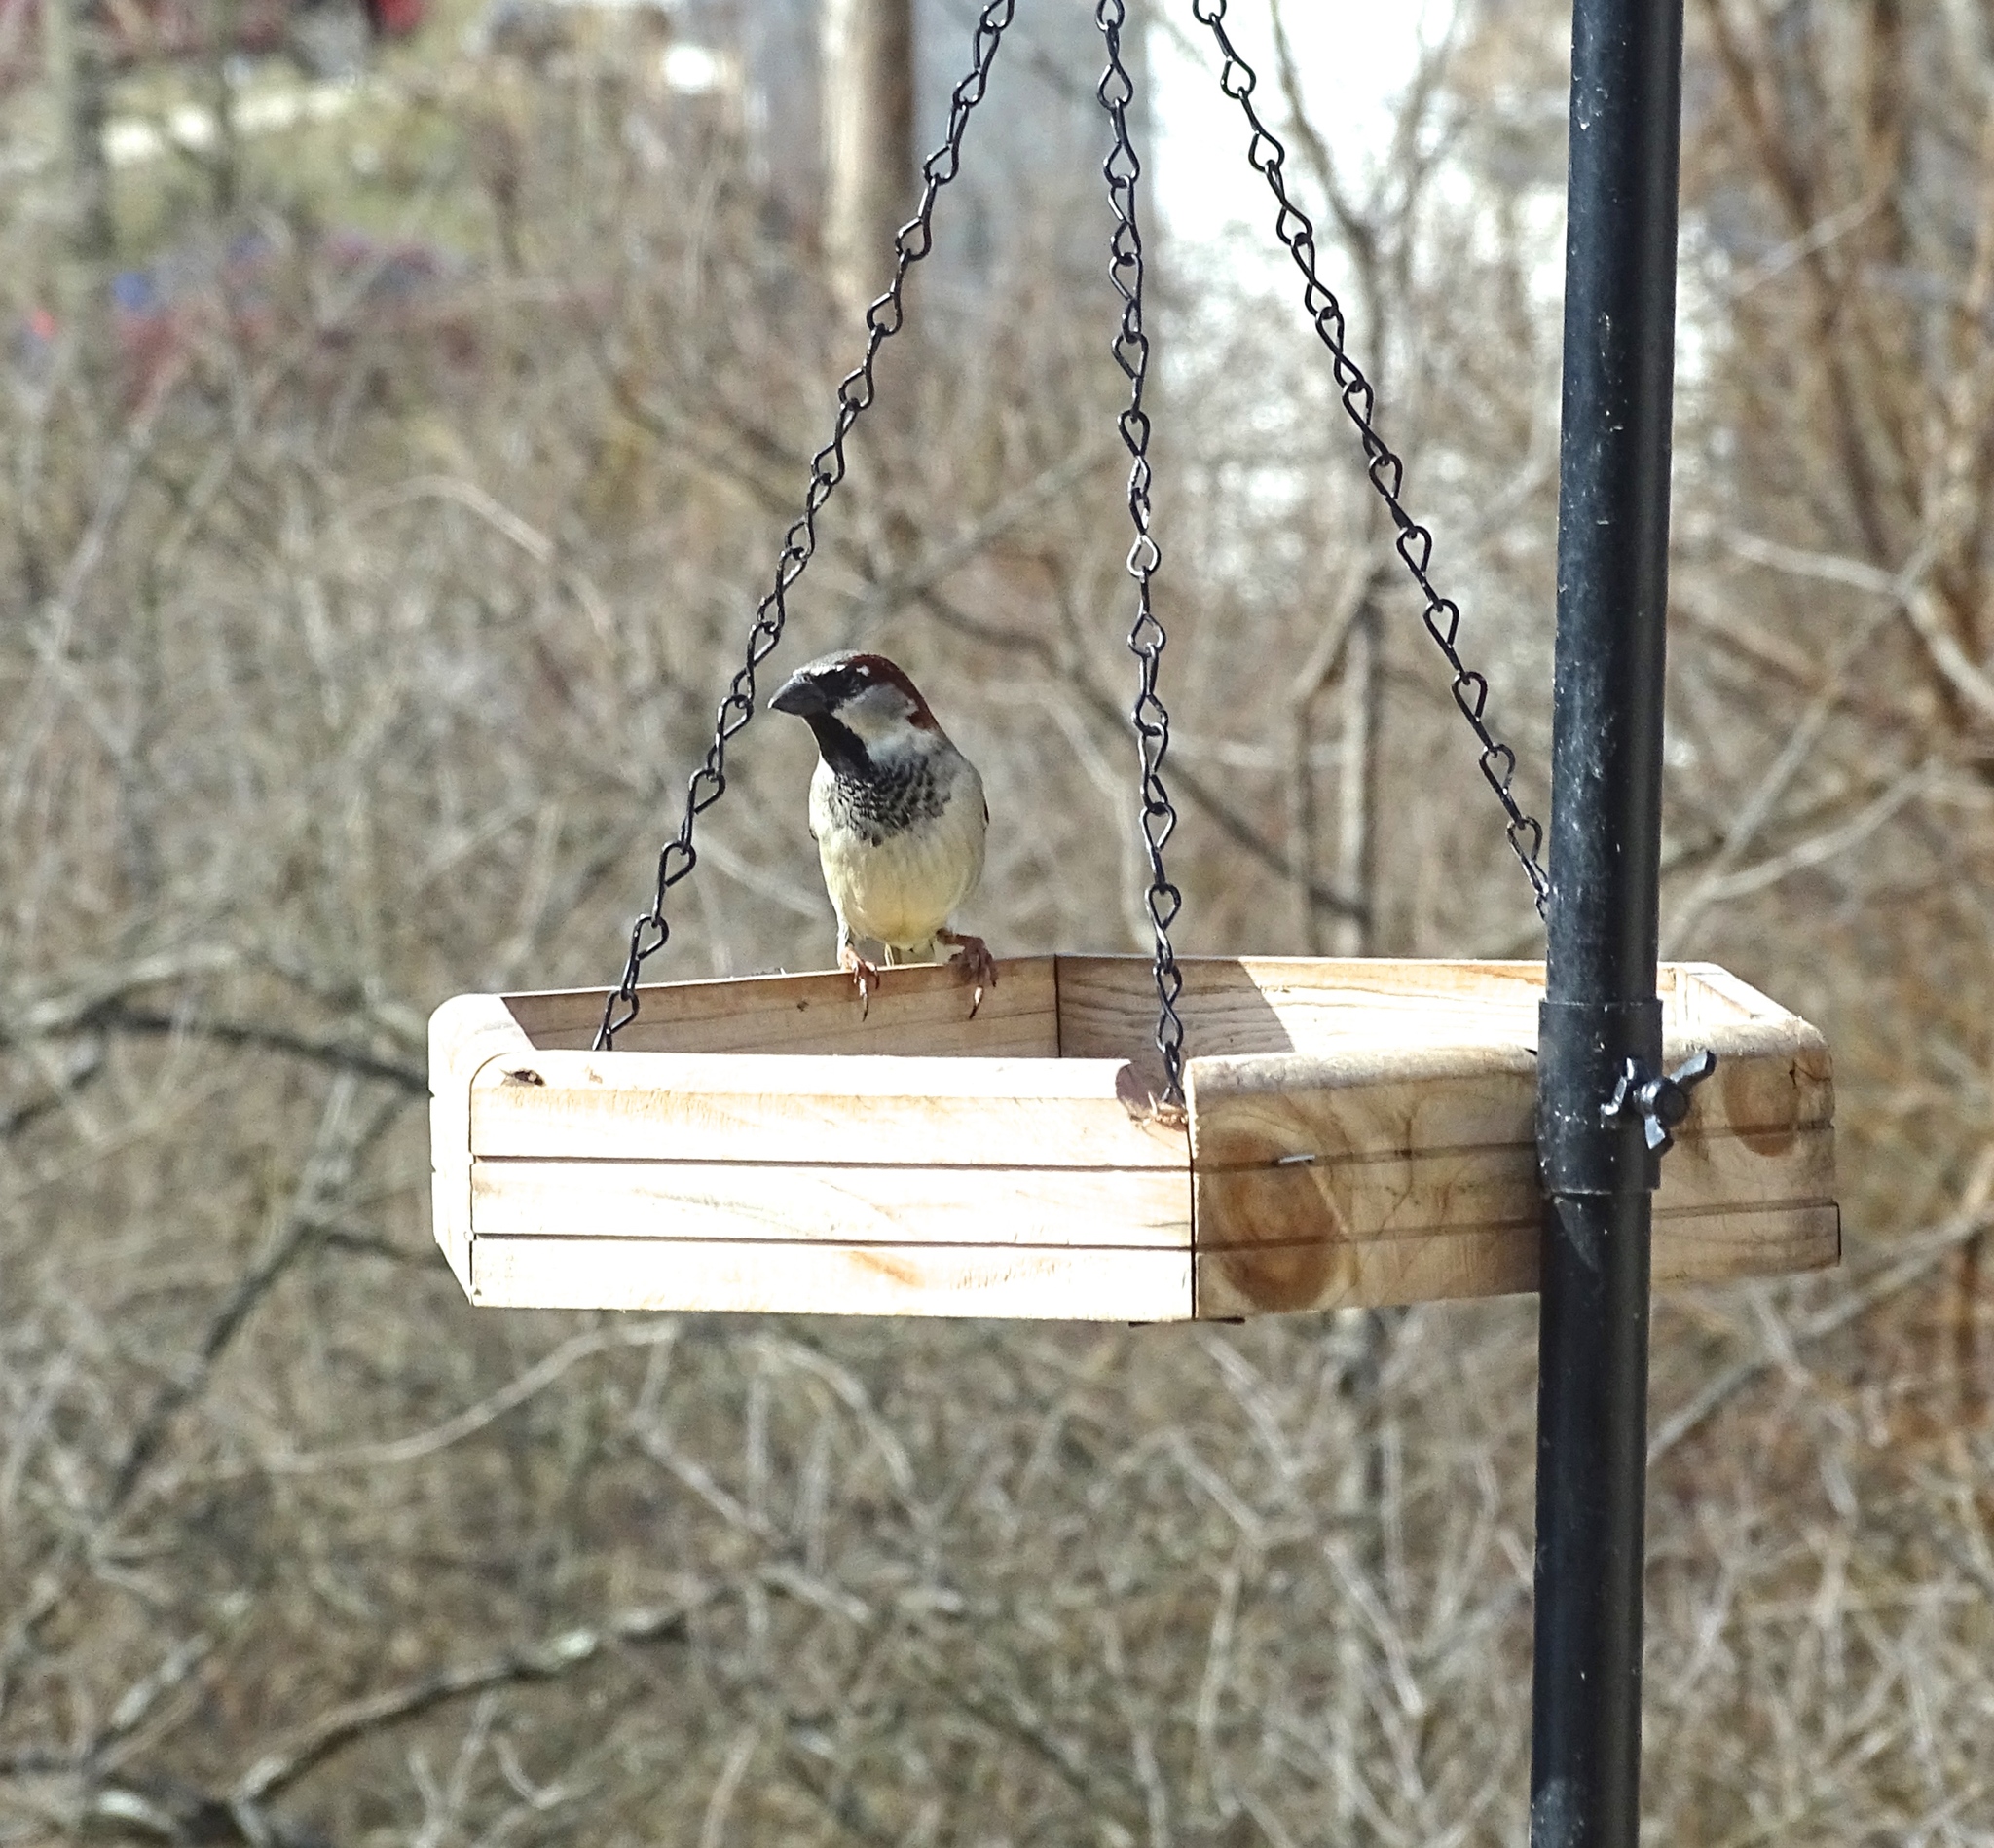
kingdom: Animalia
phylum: Chordata
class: Aves
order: Passeriformes
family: Passeridae
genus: Passer
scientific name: Passer domesticus
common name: House sparrow
